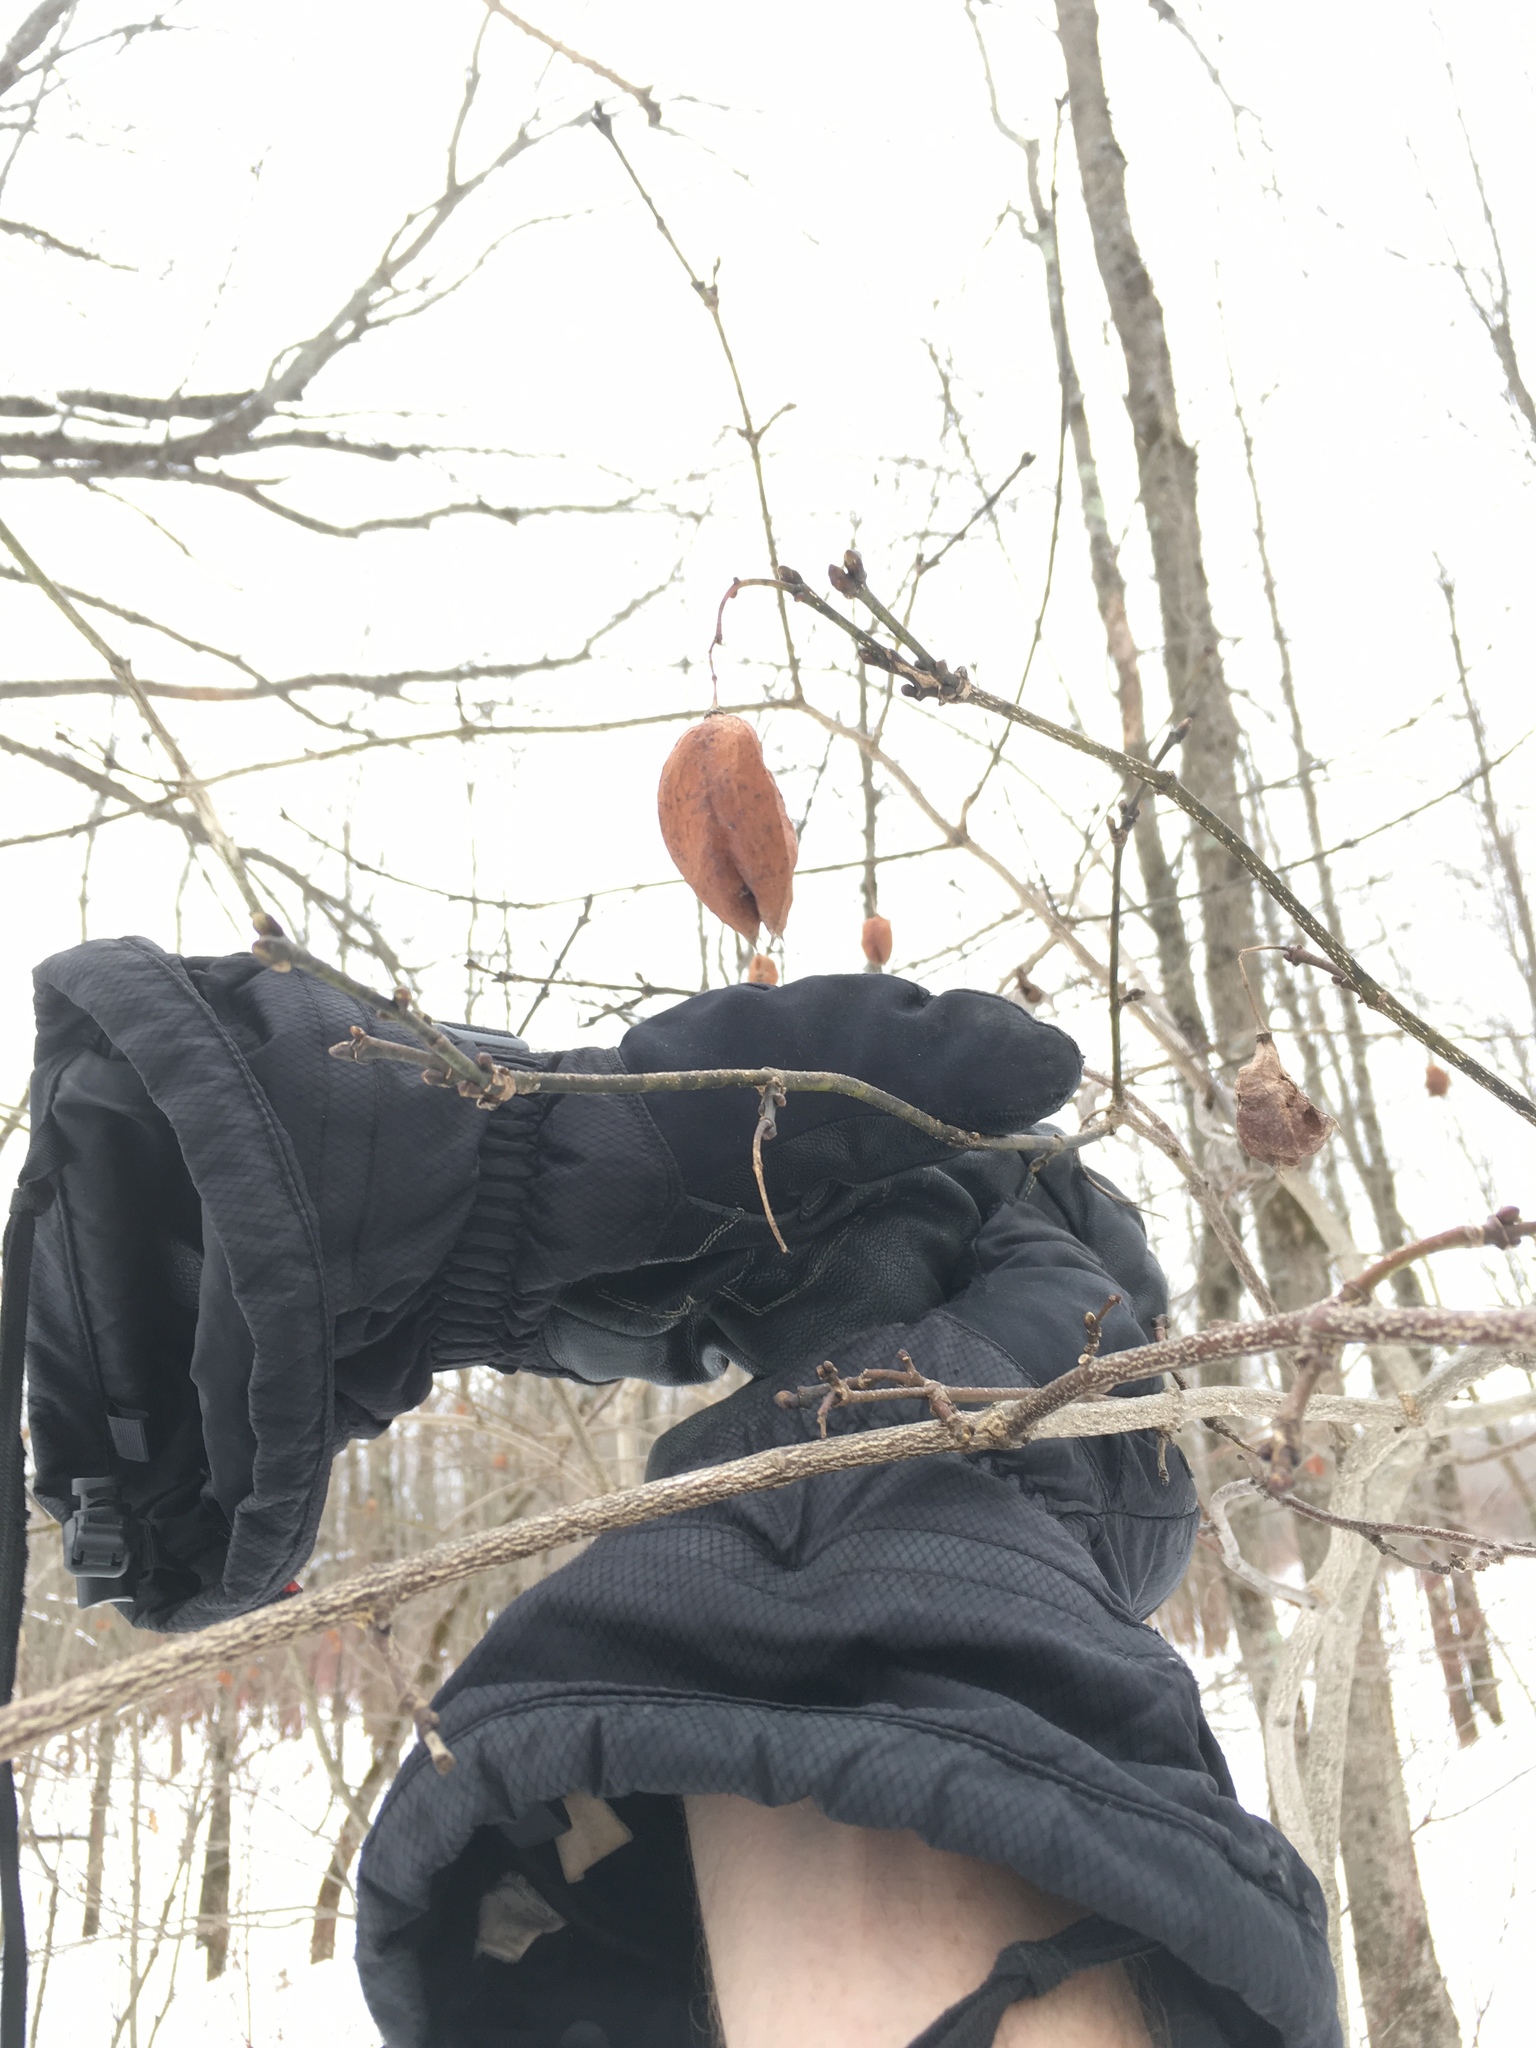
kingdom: Plantae
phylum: Tracheophyta
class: Magnoliopsida
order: Crossosomatales
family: Staphyleaceae
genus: Staphylea
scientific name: Staphylea trifolia
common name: American bladdernut
